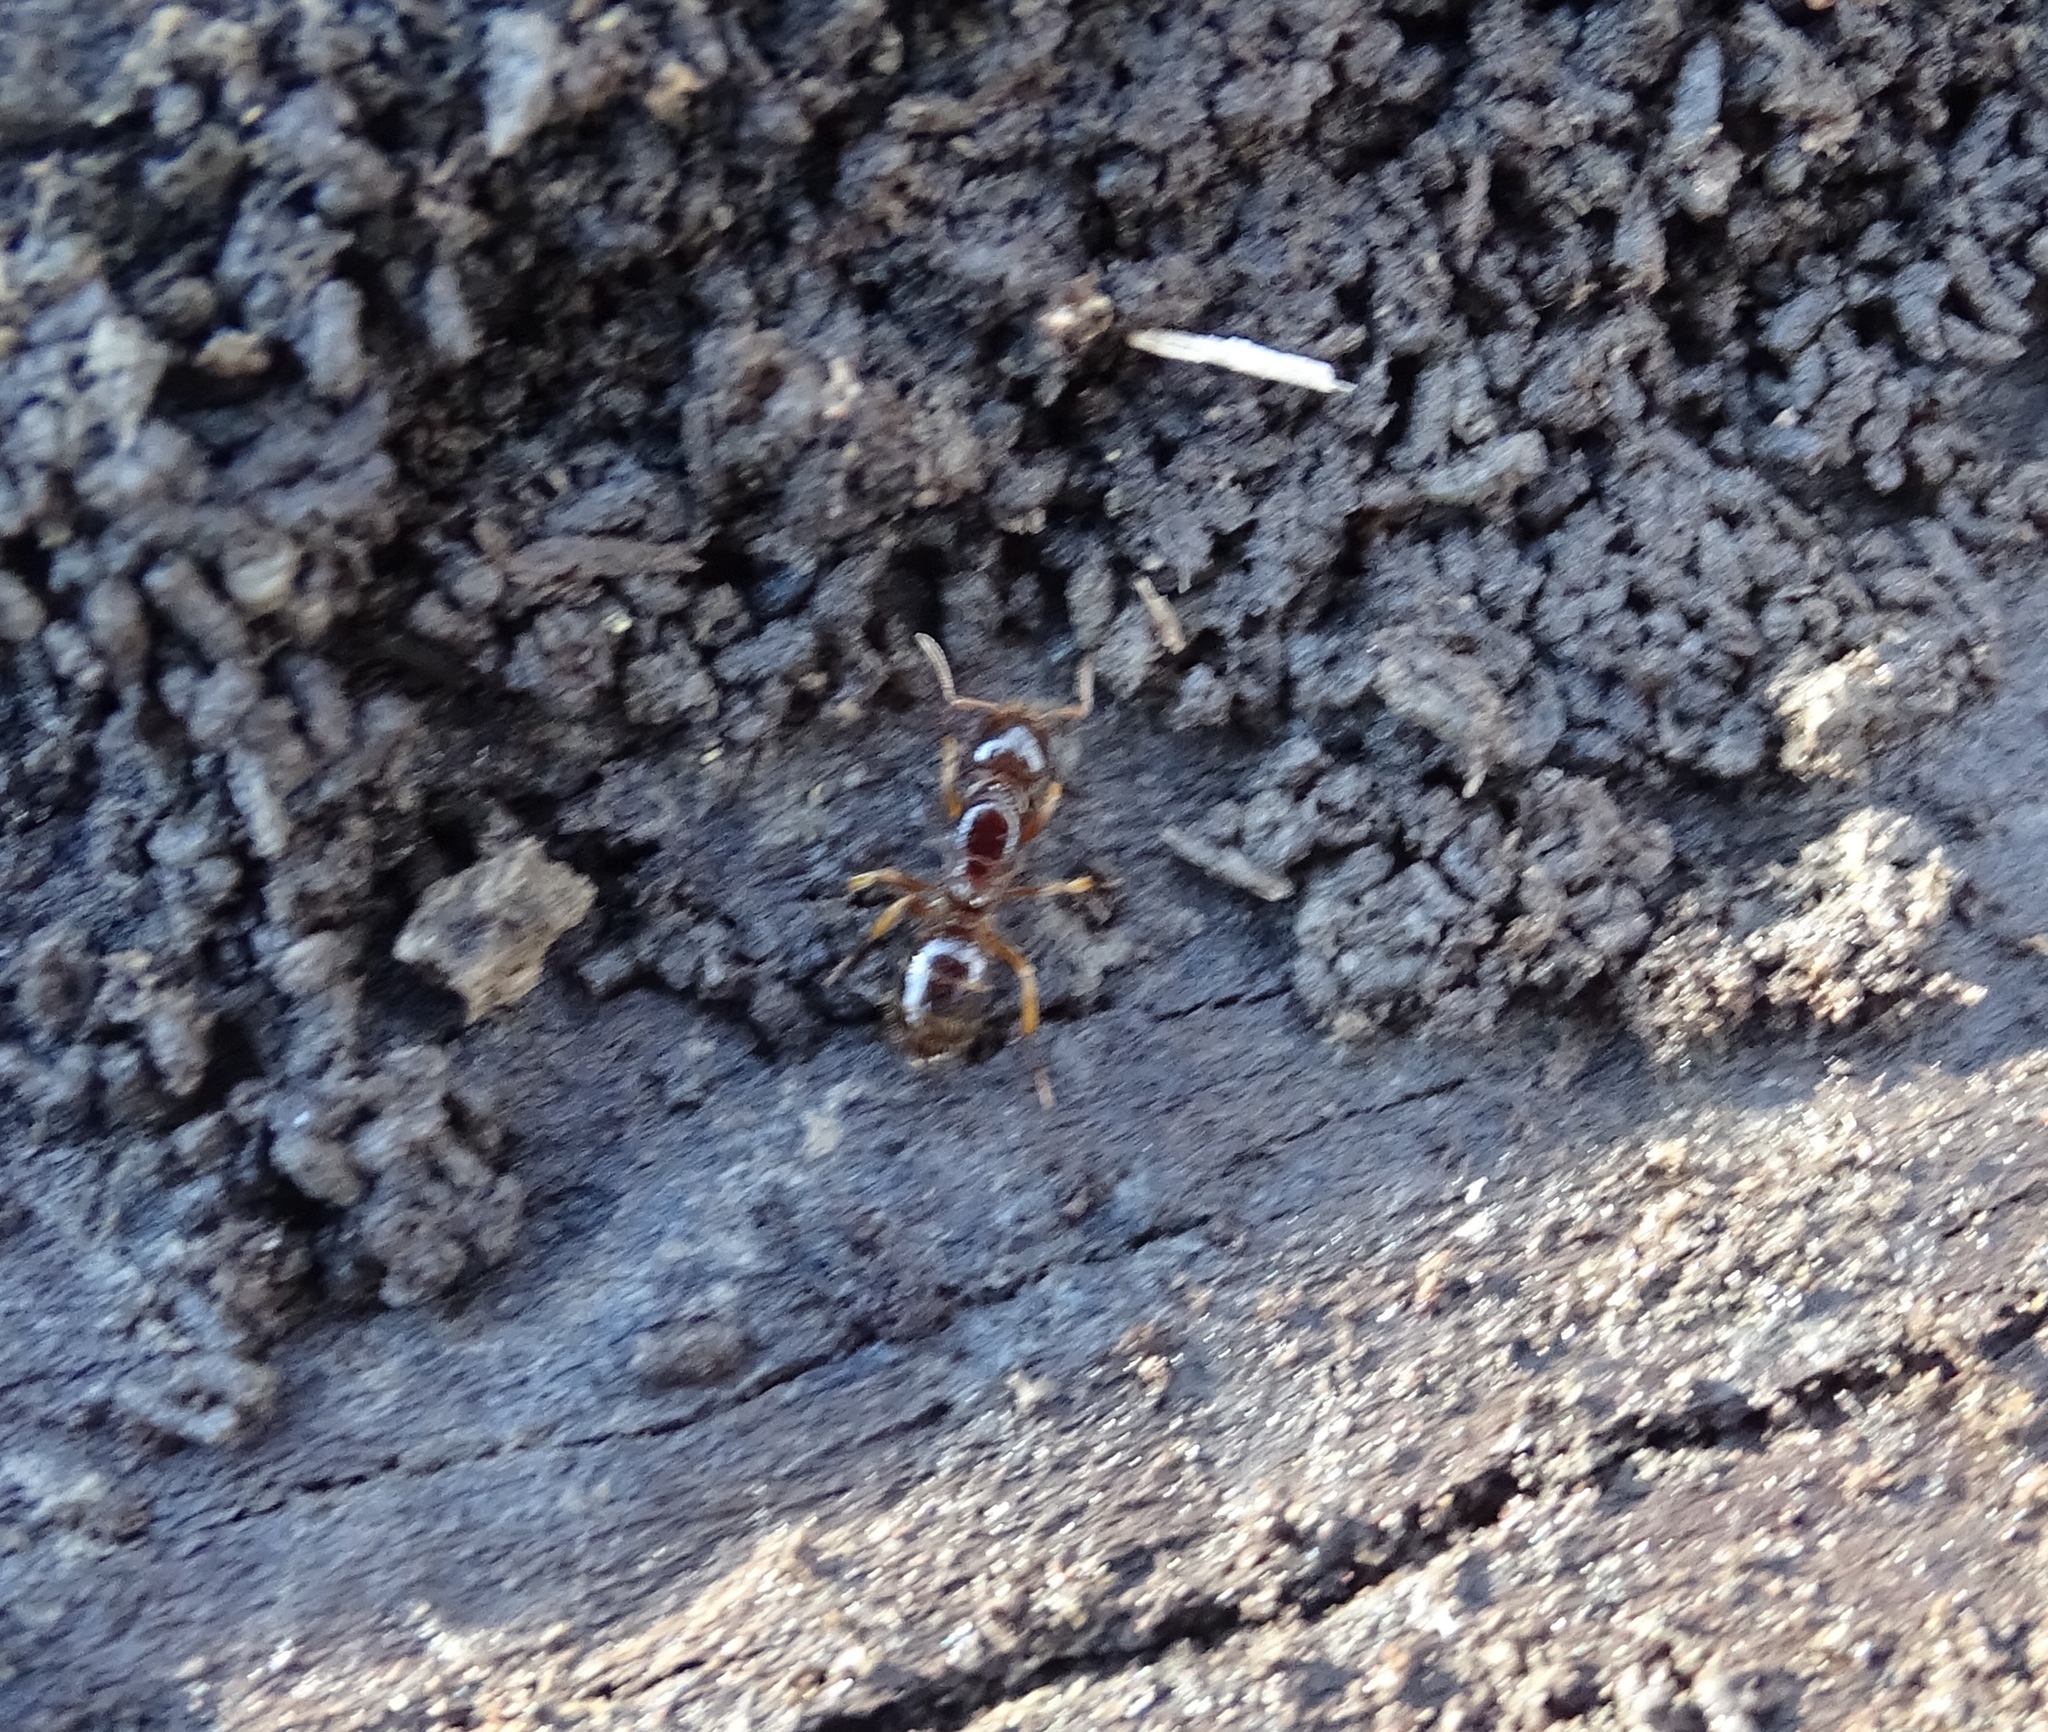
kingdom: Animalia
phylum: Arthropoda
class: Insecta
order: Hymenoptera
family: Formicidae
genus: Lasius
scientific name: Lasius claviger
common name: Common citronella ant
